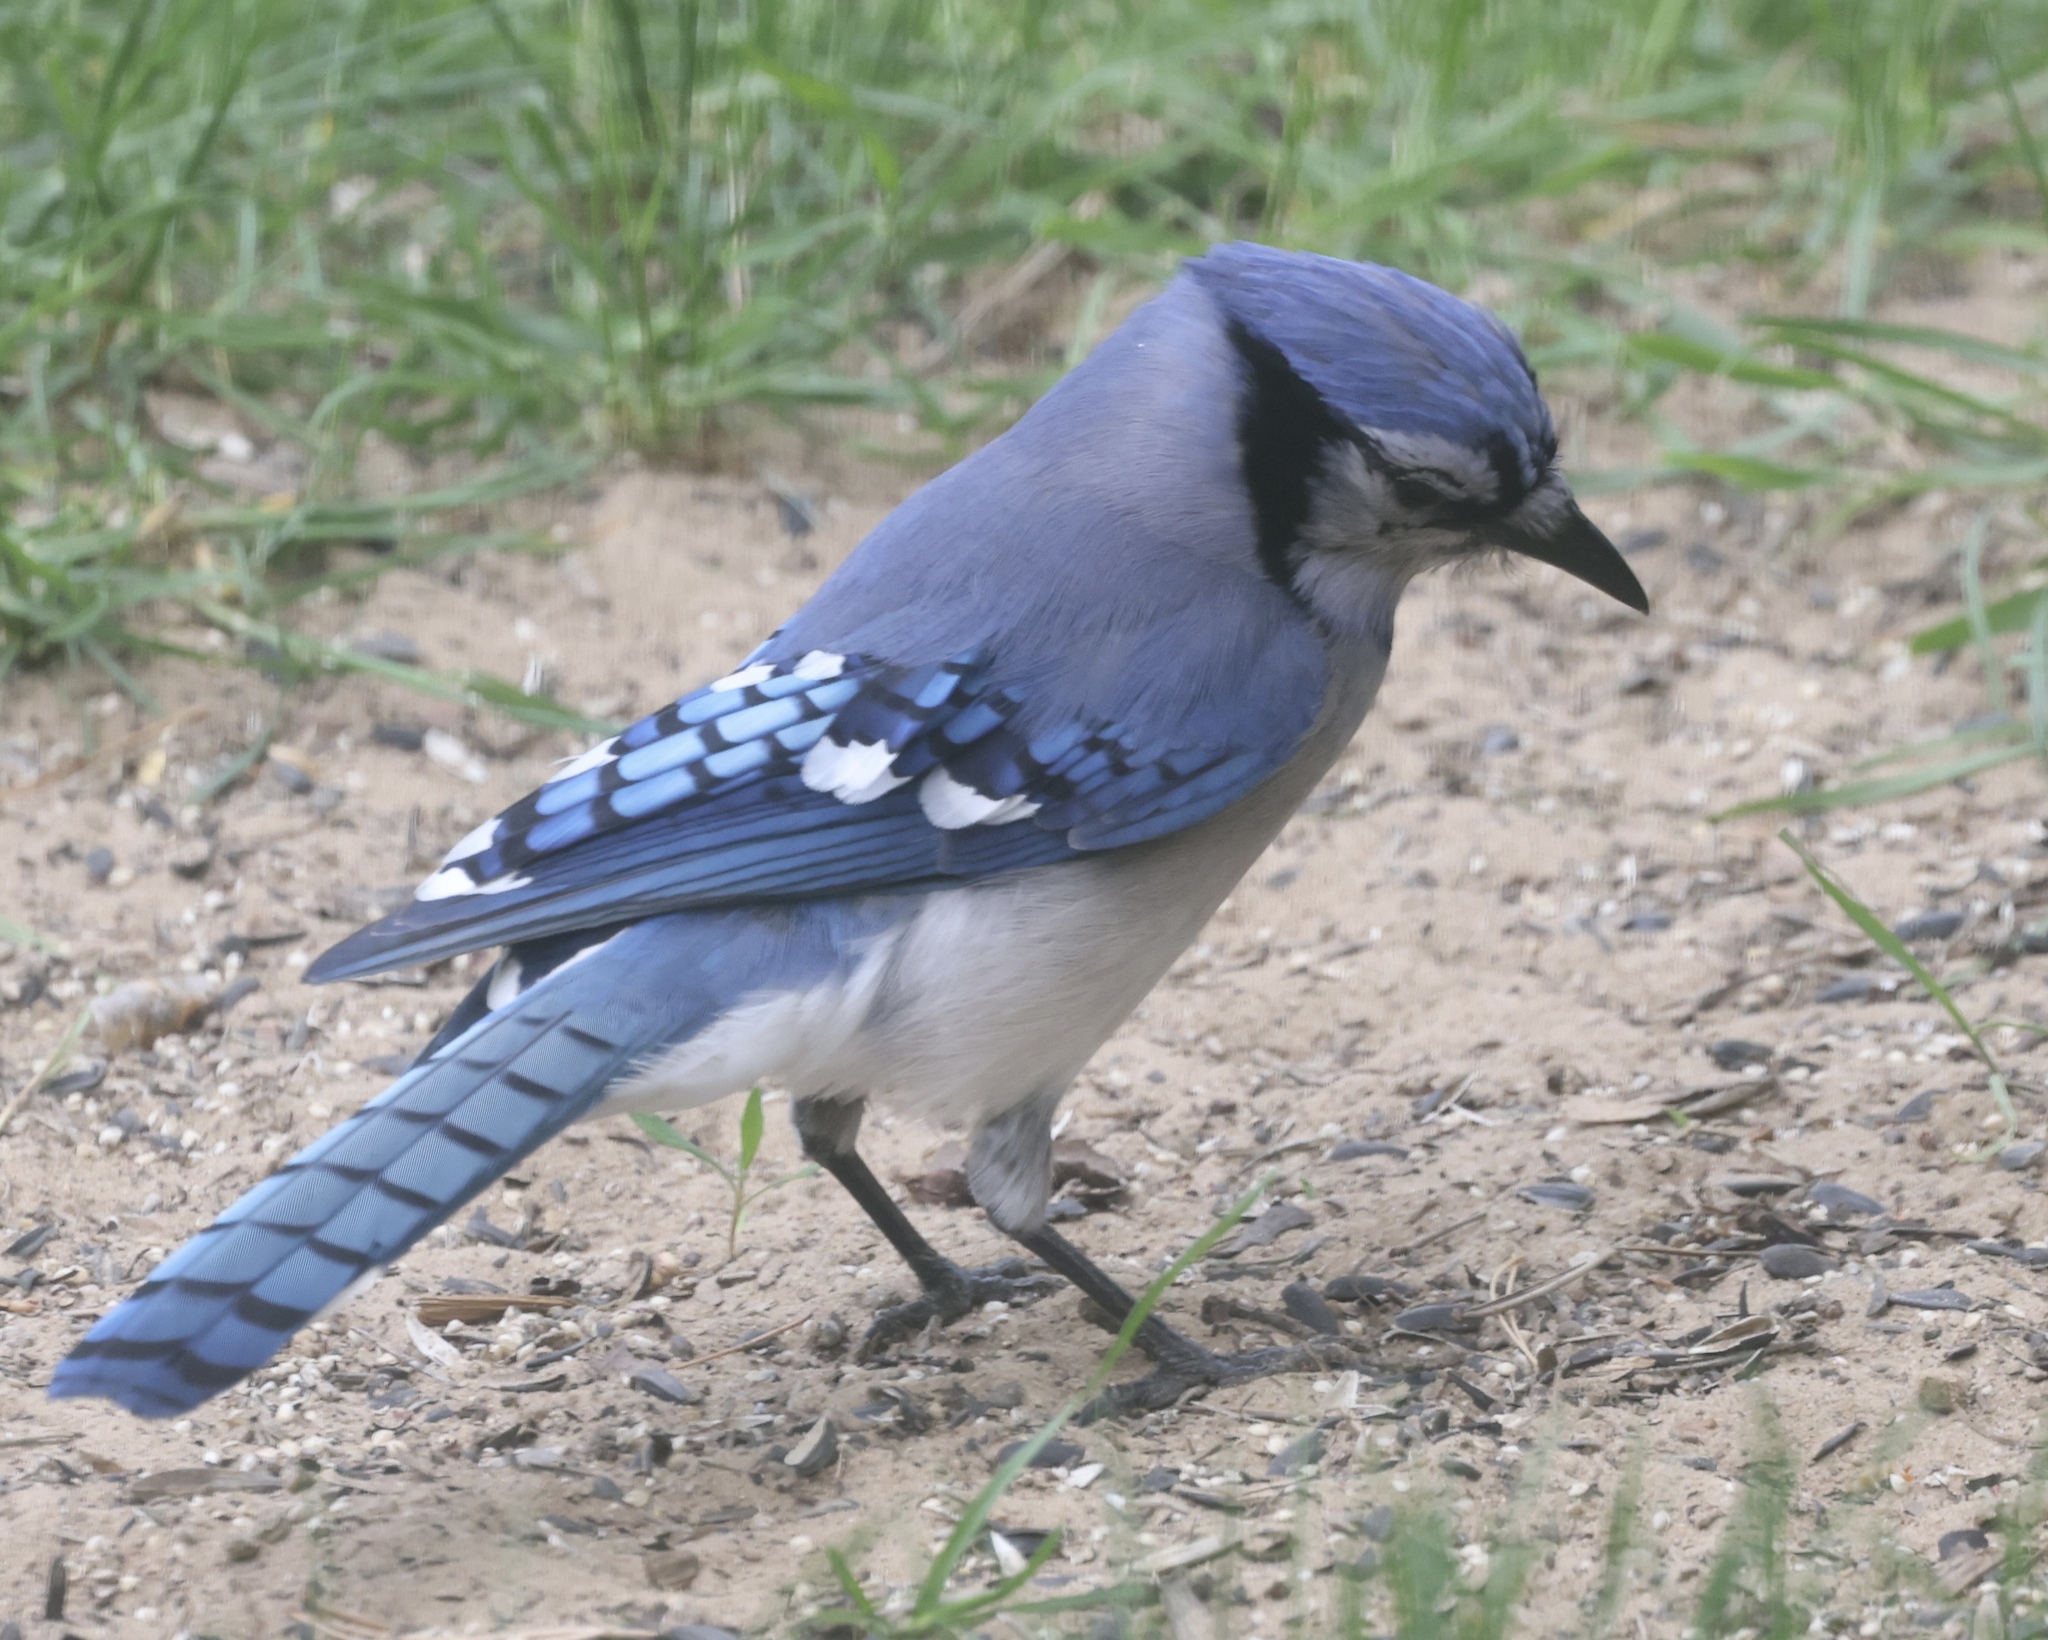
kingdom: Animalia
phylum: Chordata
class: Aves
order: Passeriformes
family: Corvidae
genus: Cyanocitta
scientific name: Cyanocitta cristata
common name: Blue jay
